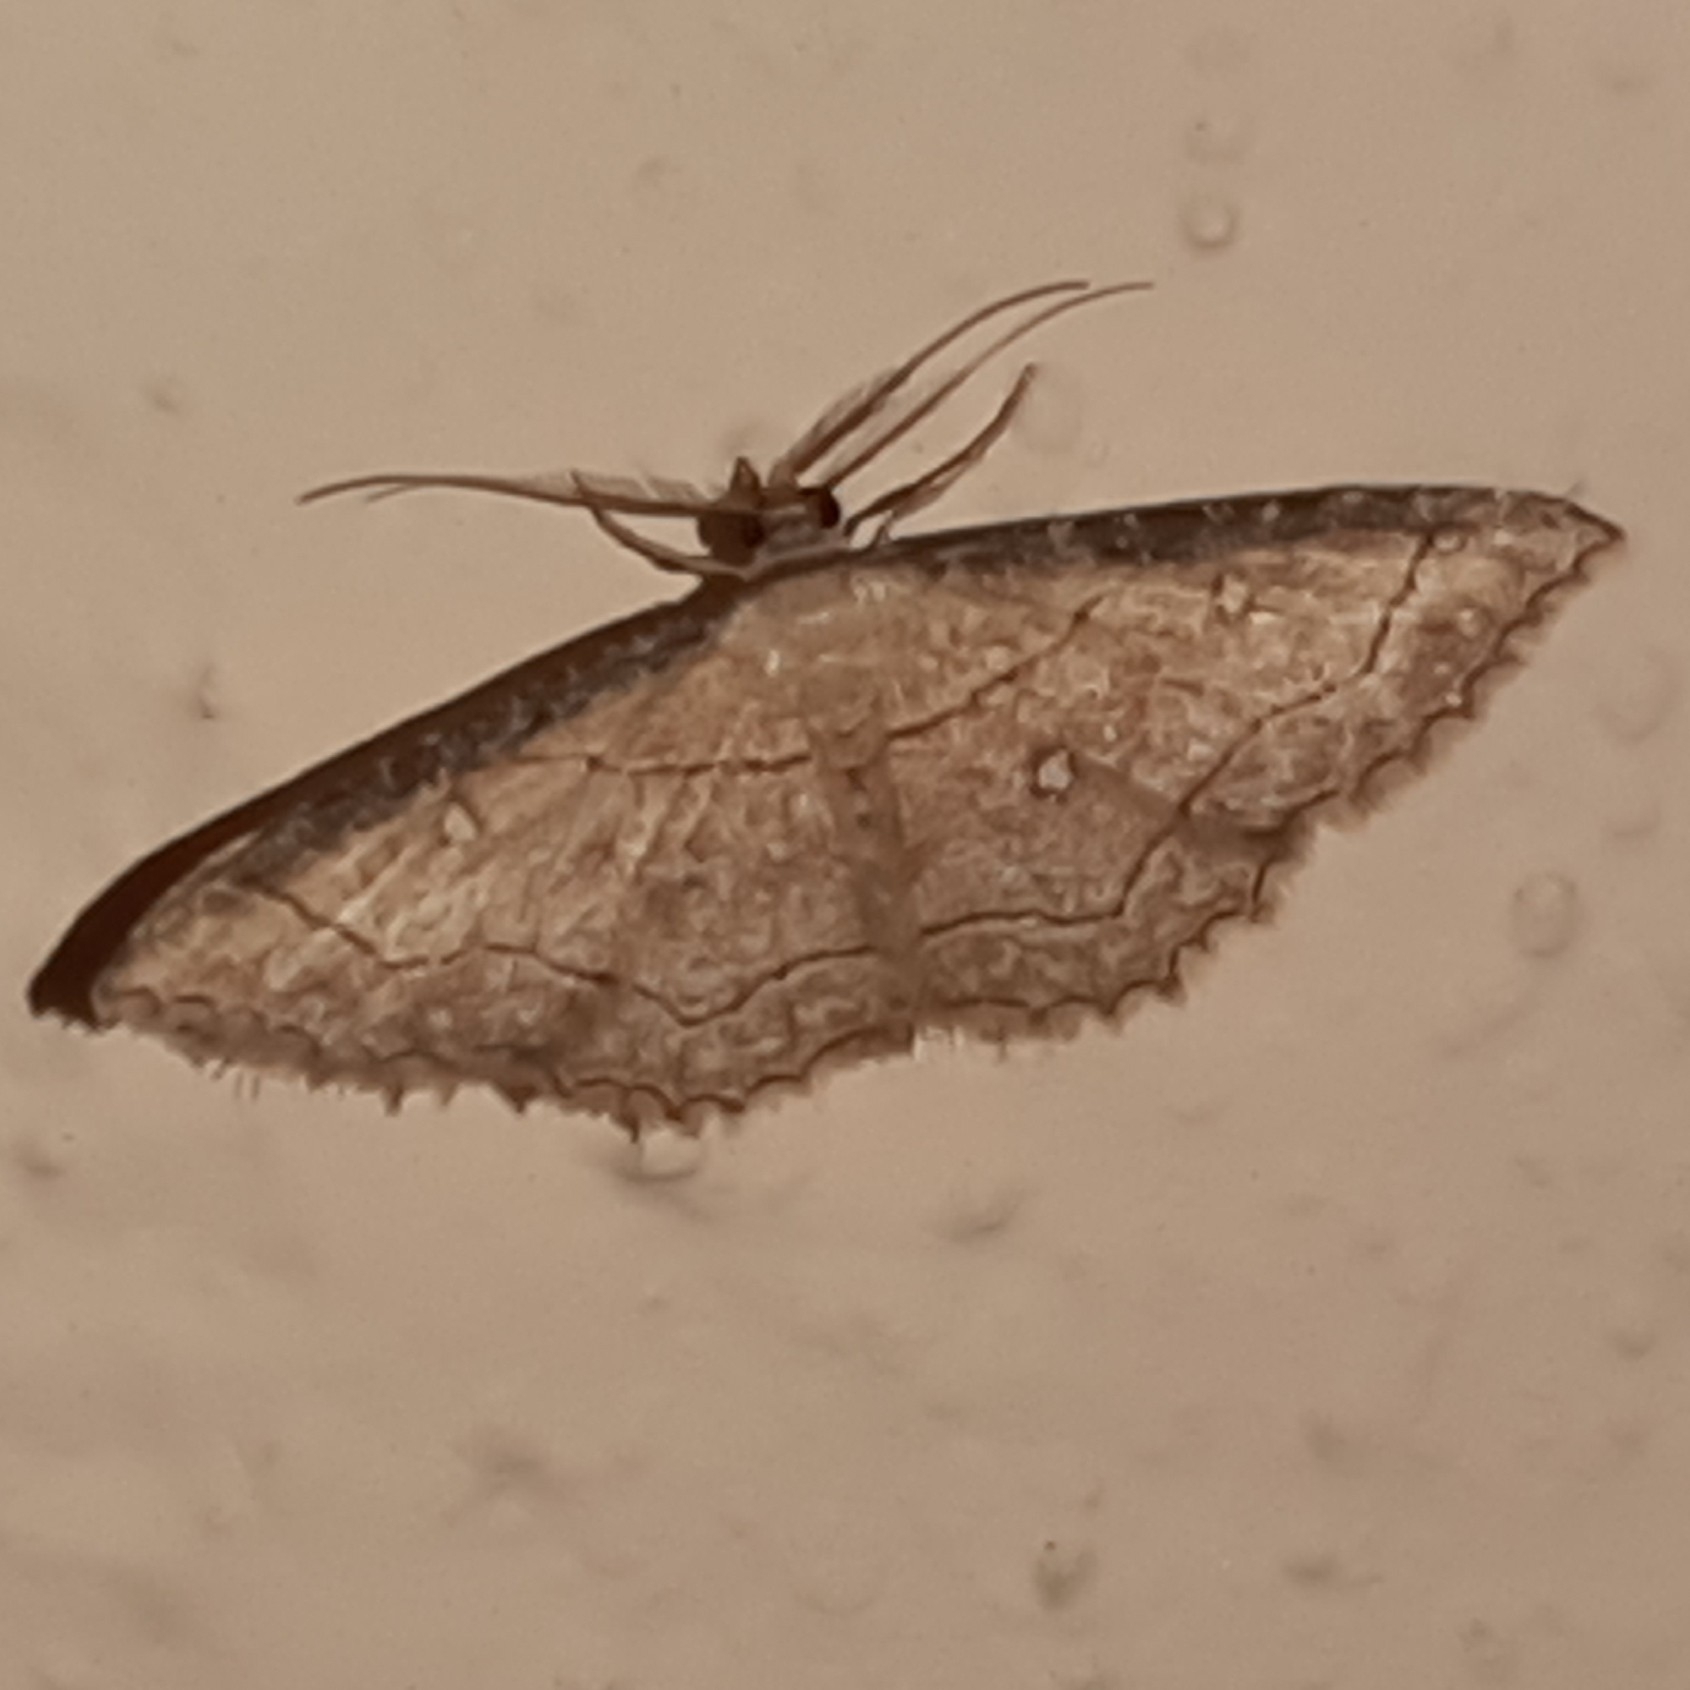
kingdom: Animalia
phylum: Arthropoda
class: Insecta
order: Lepidoptera
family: Geometridae
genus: Cyclophora
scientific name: Cyclophora coecaria
